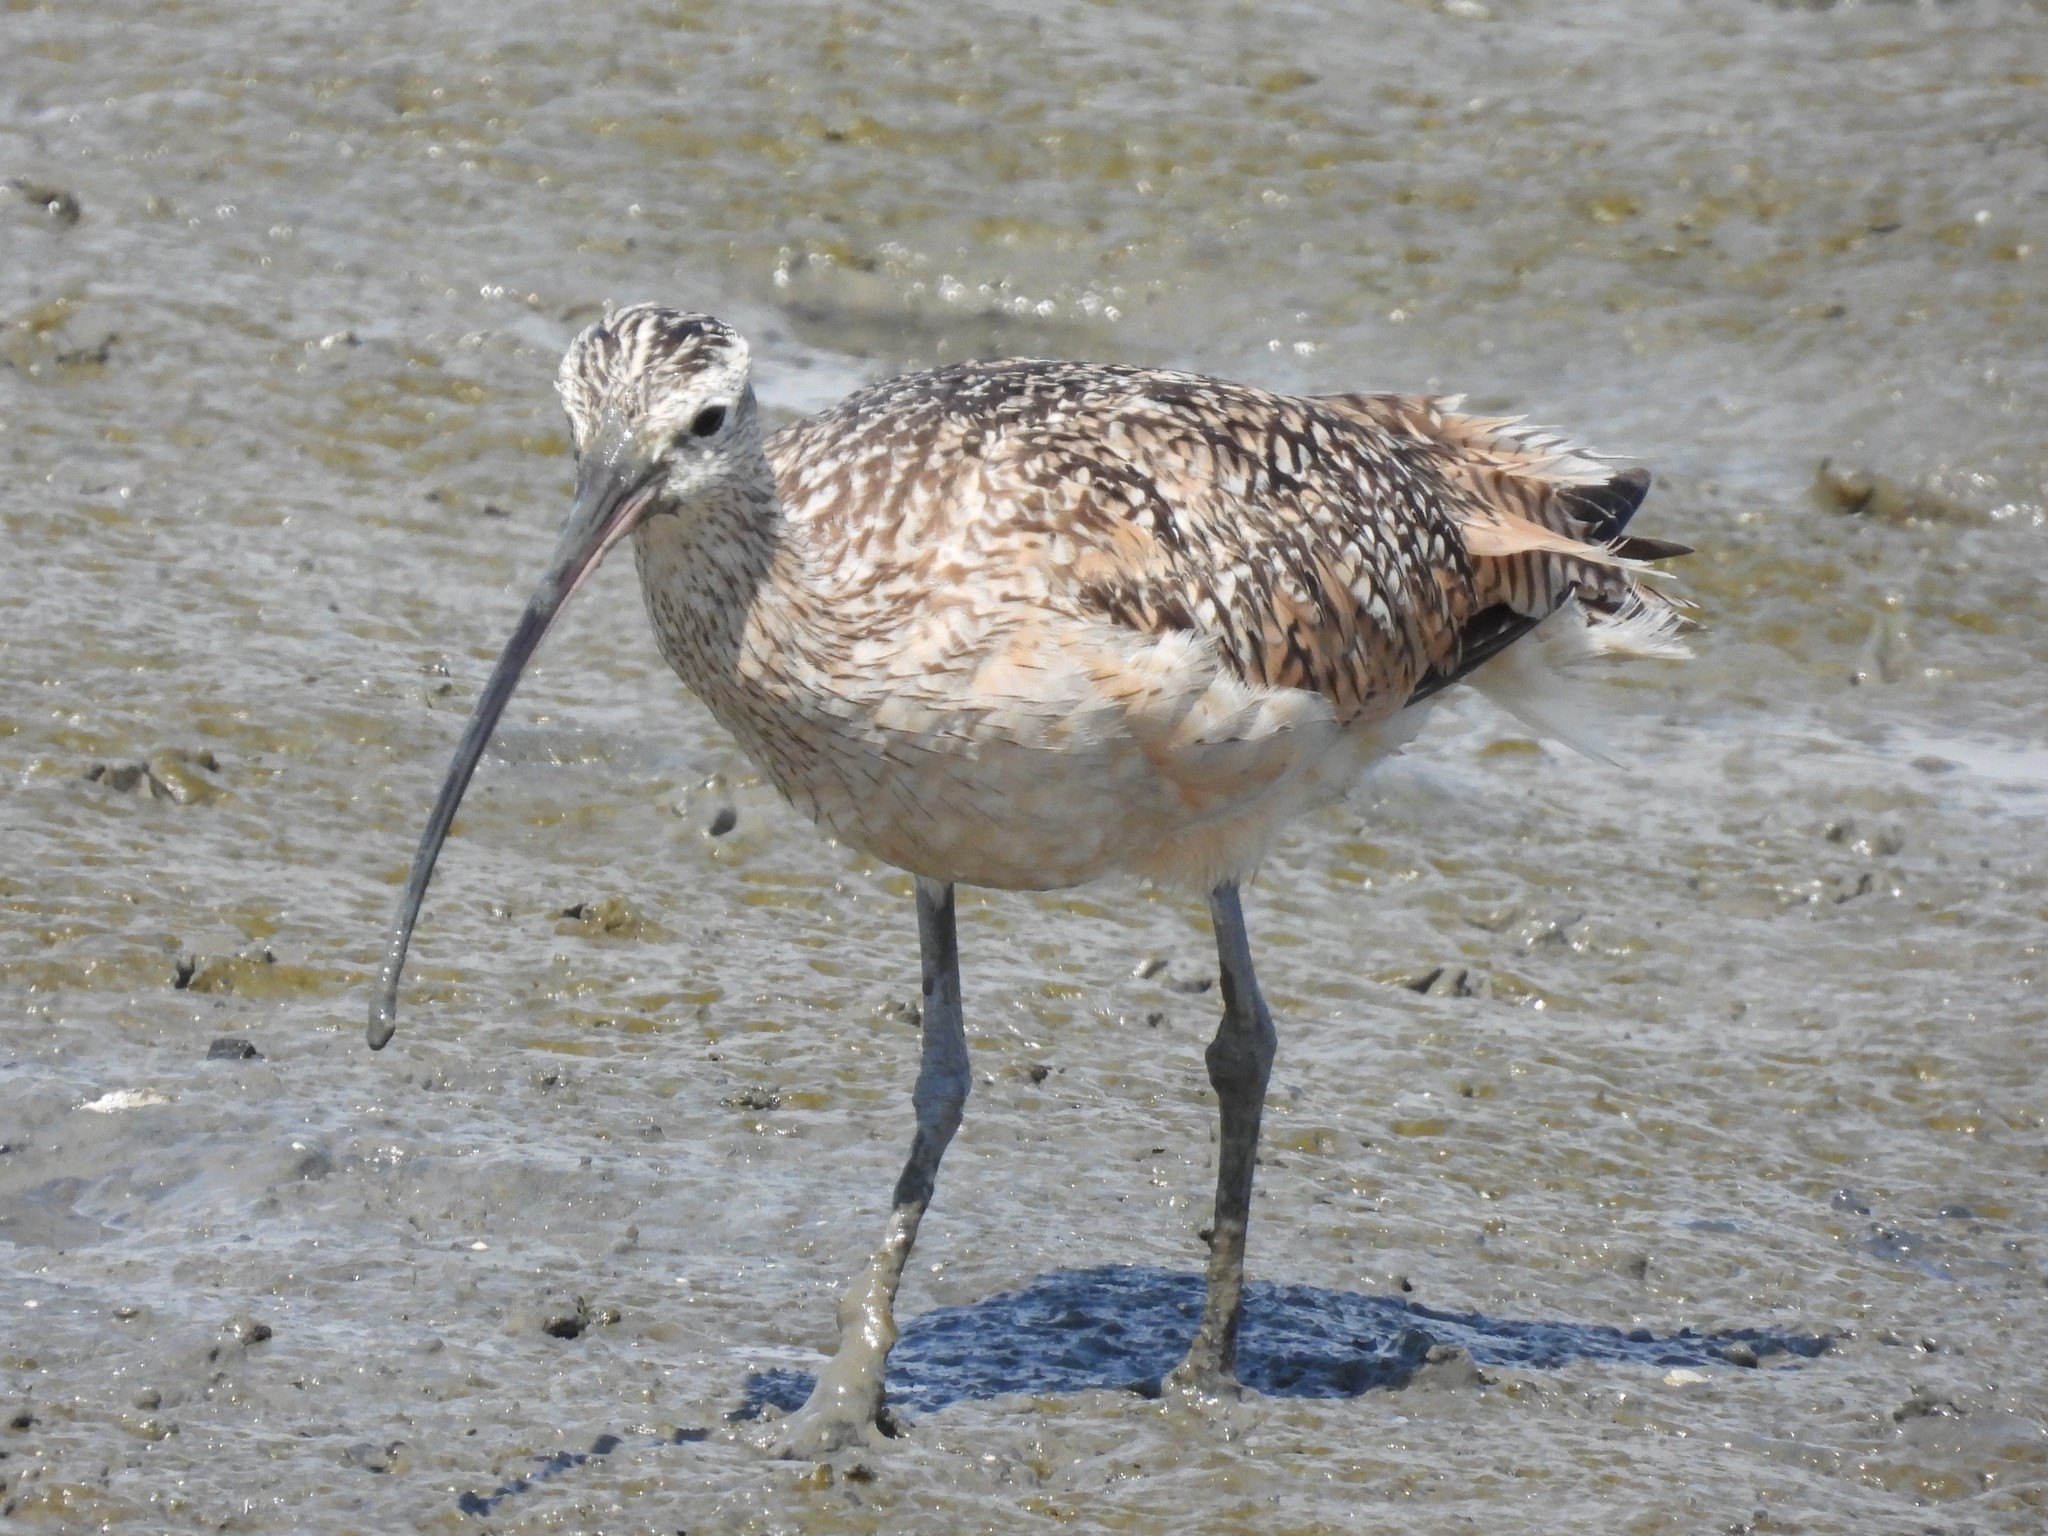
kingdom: Animalia
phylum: Chordata
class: Aves
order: Charadriiformes
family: Scolopacidae
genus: Numenius
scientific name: Numenius americanus
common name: Long-billed curlew
